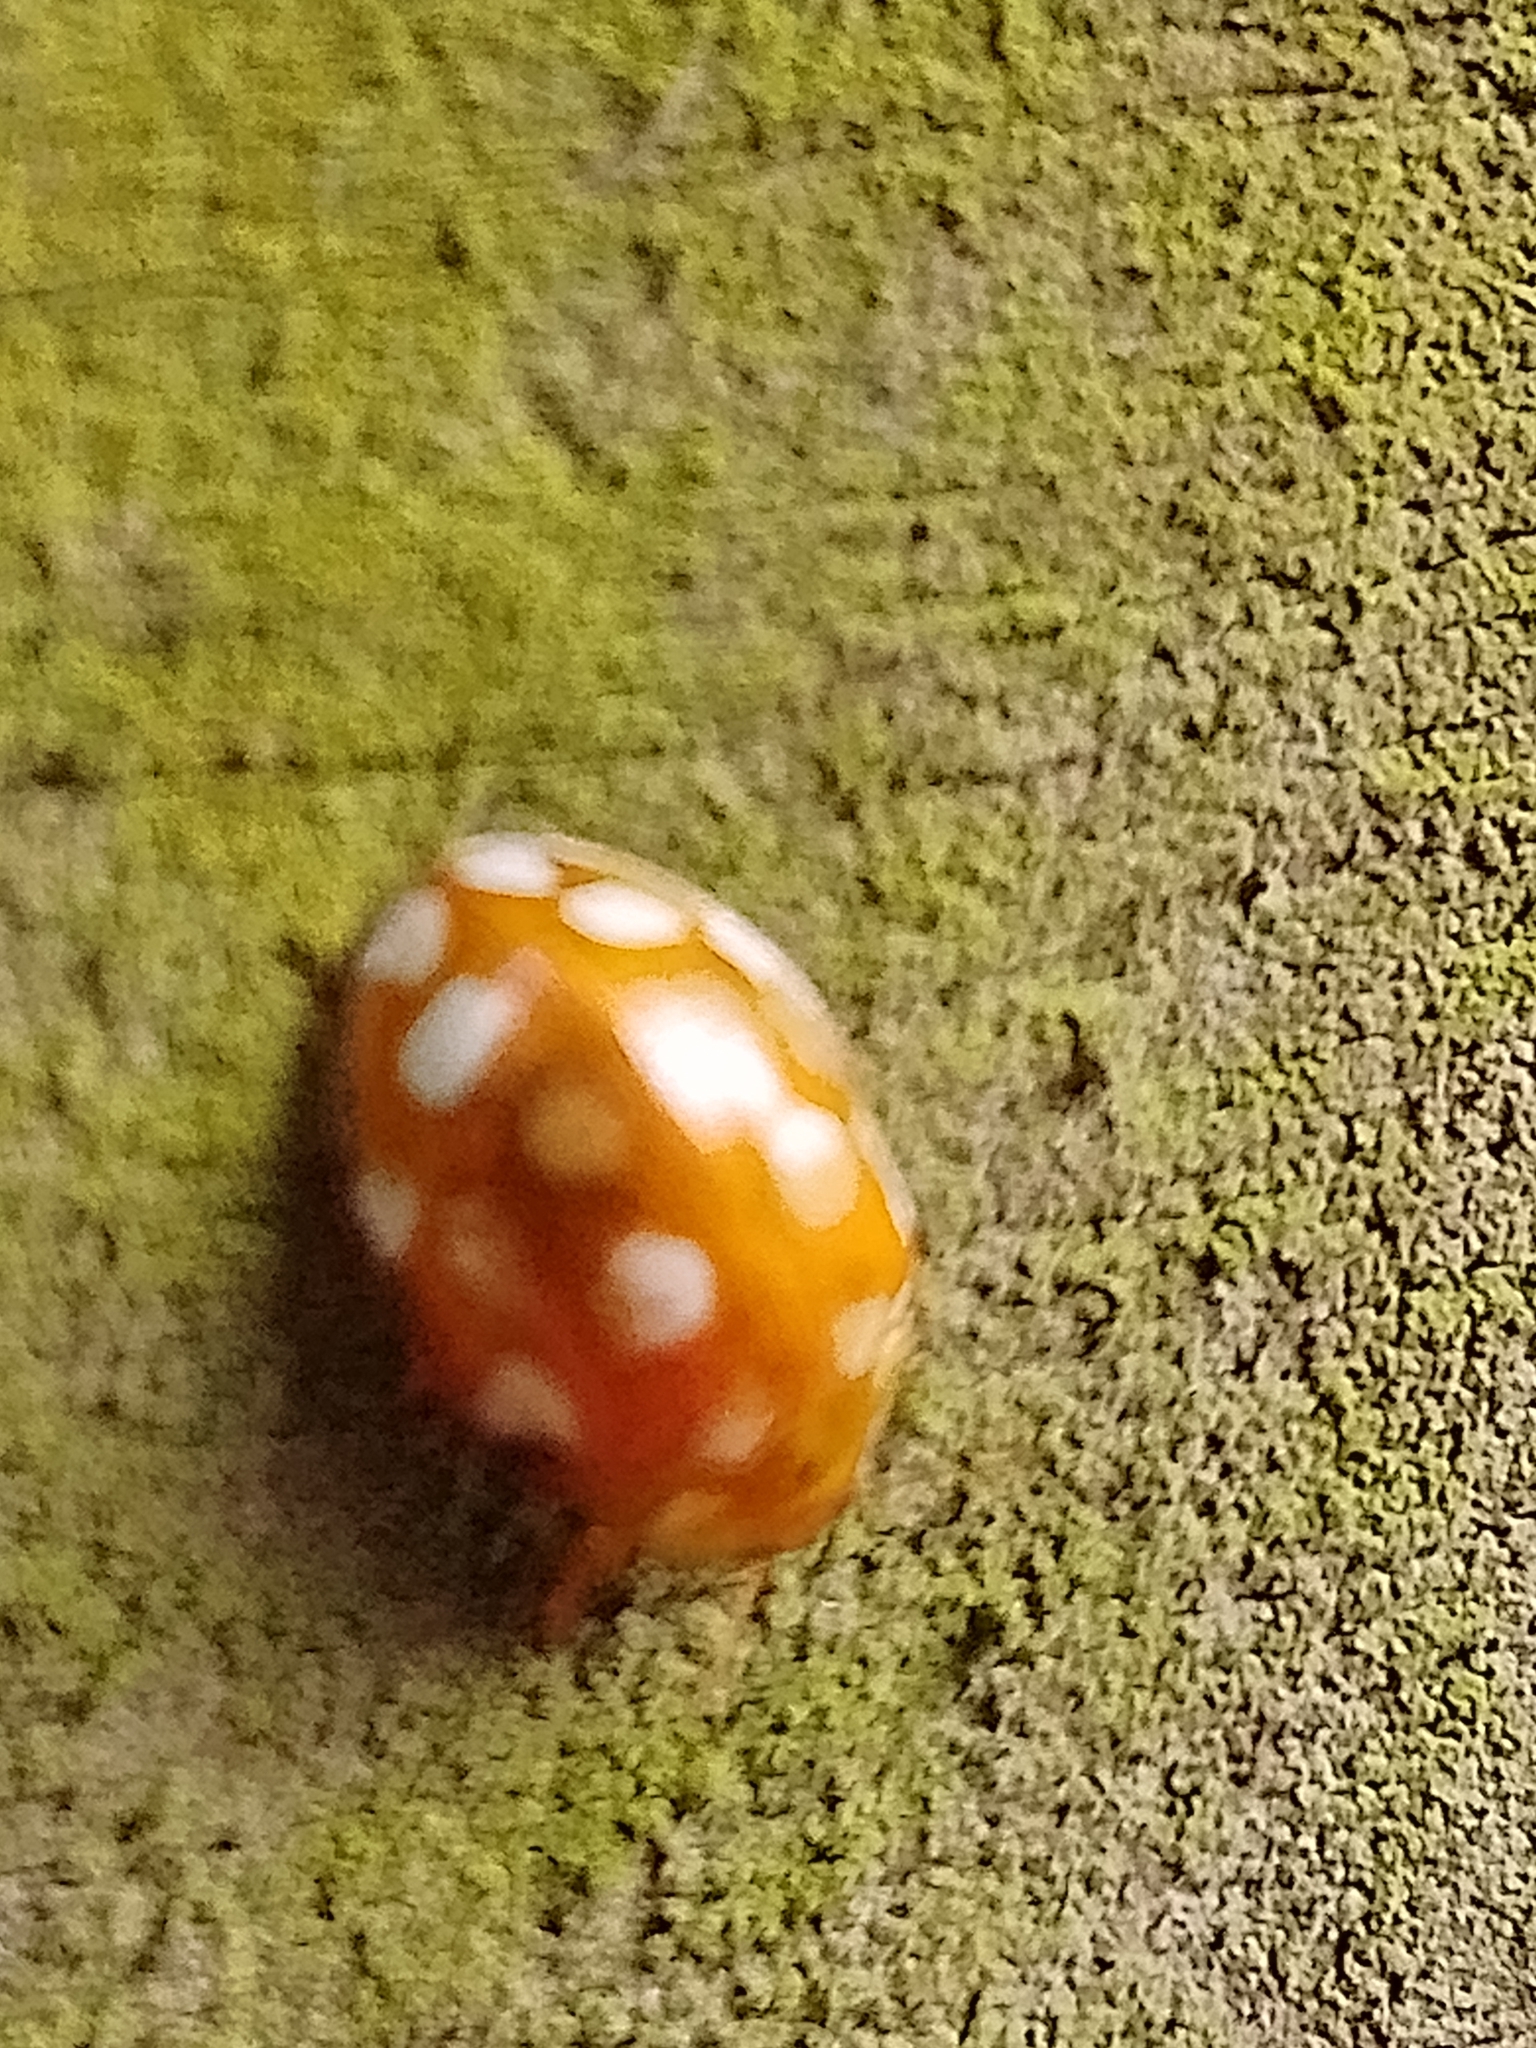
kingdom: Animalia
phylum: Arthropoda
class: Insecta
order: Coleoptera
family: Coccinellidae
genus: Halyzia
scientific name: Halyzia sedecimguttata
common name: Orange ladybird
